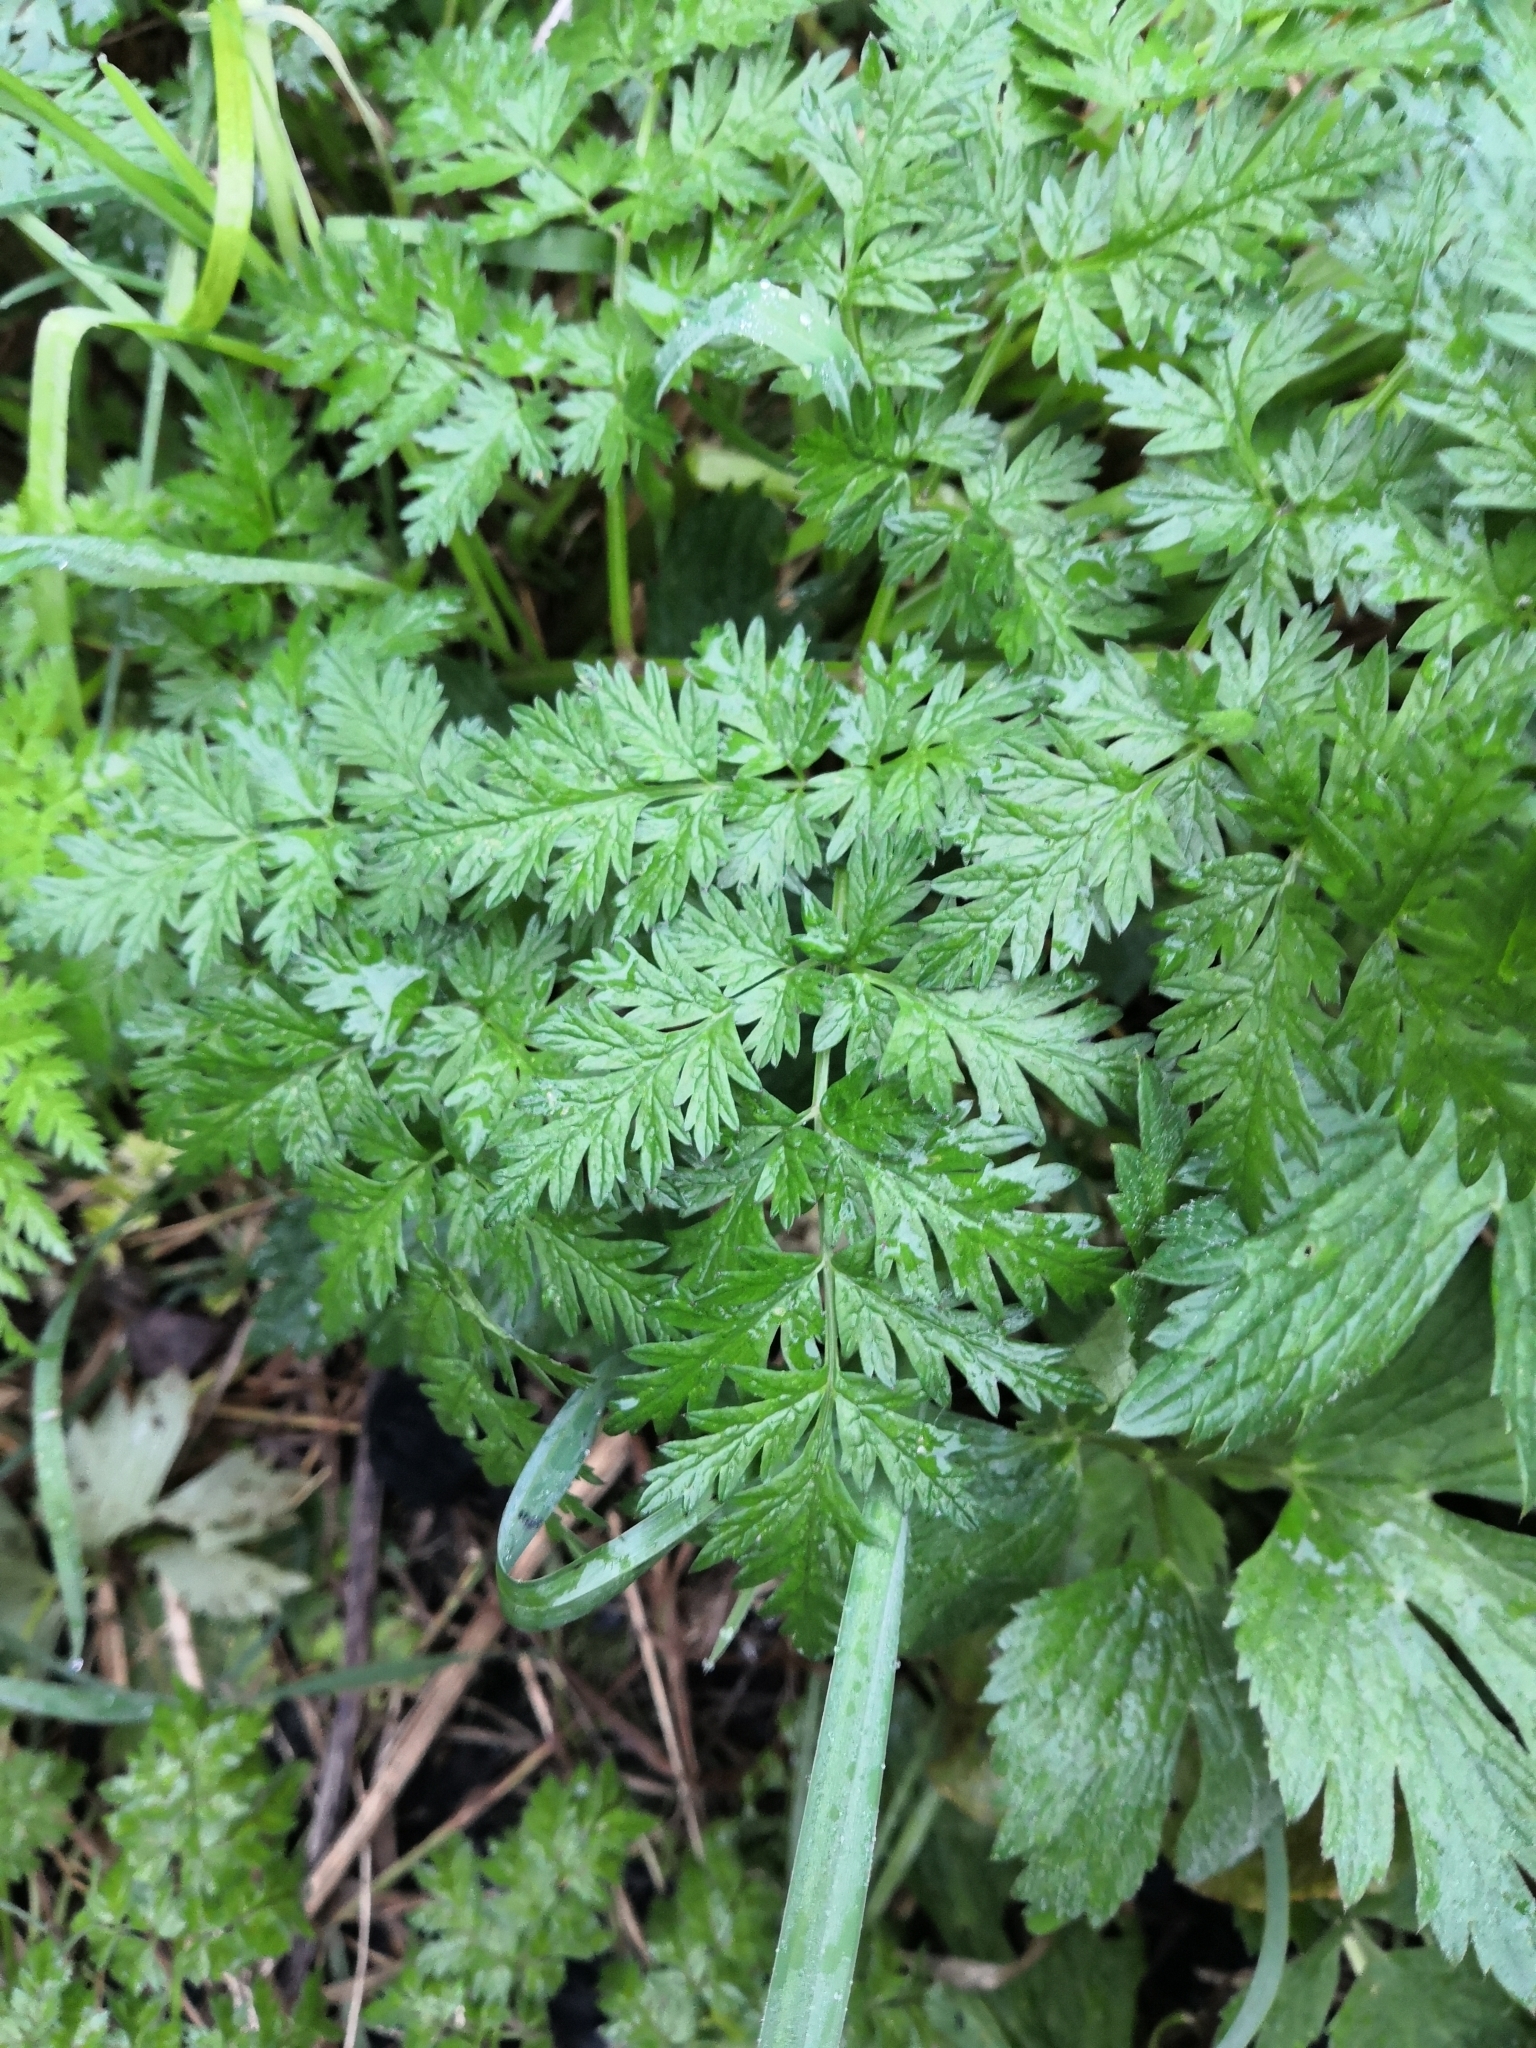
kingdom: Plantae
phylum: Tracheophyta
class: Magnoliopsida
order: Apiales
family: Apiaceae
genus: Anthriscus
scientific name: Anthriscus sylvestris
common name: Cow parsley
